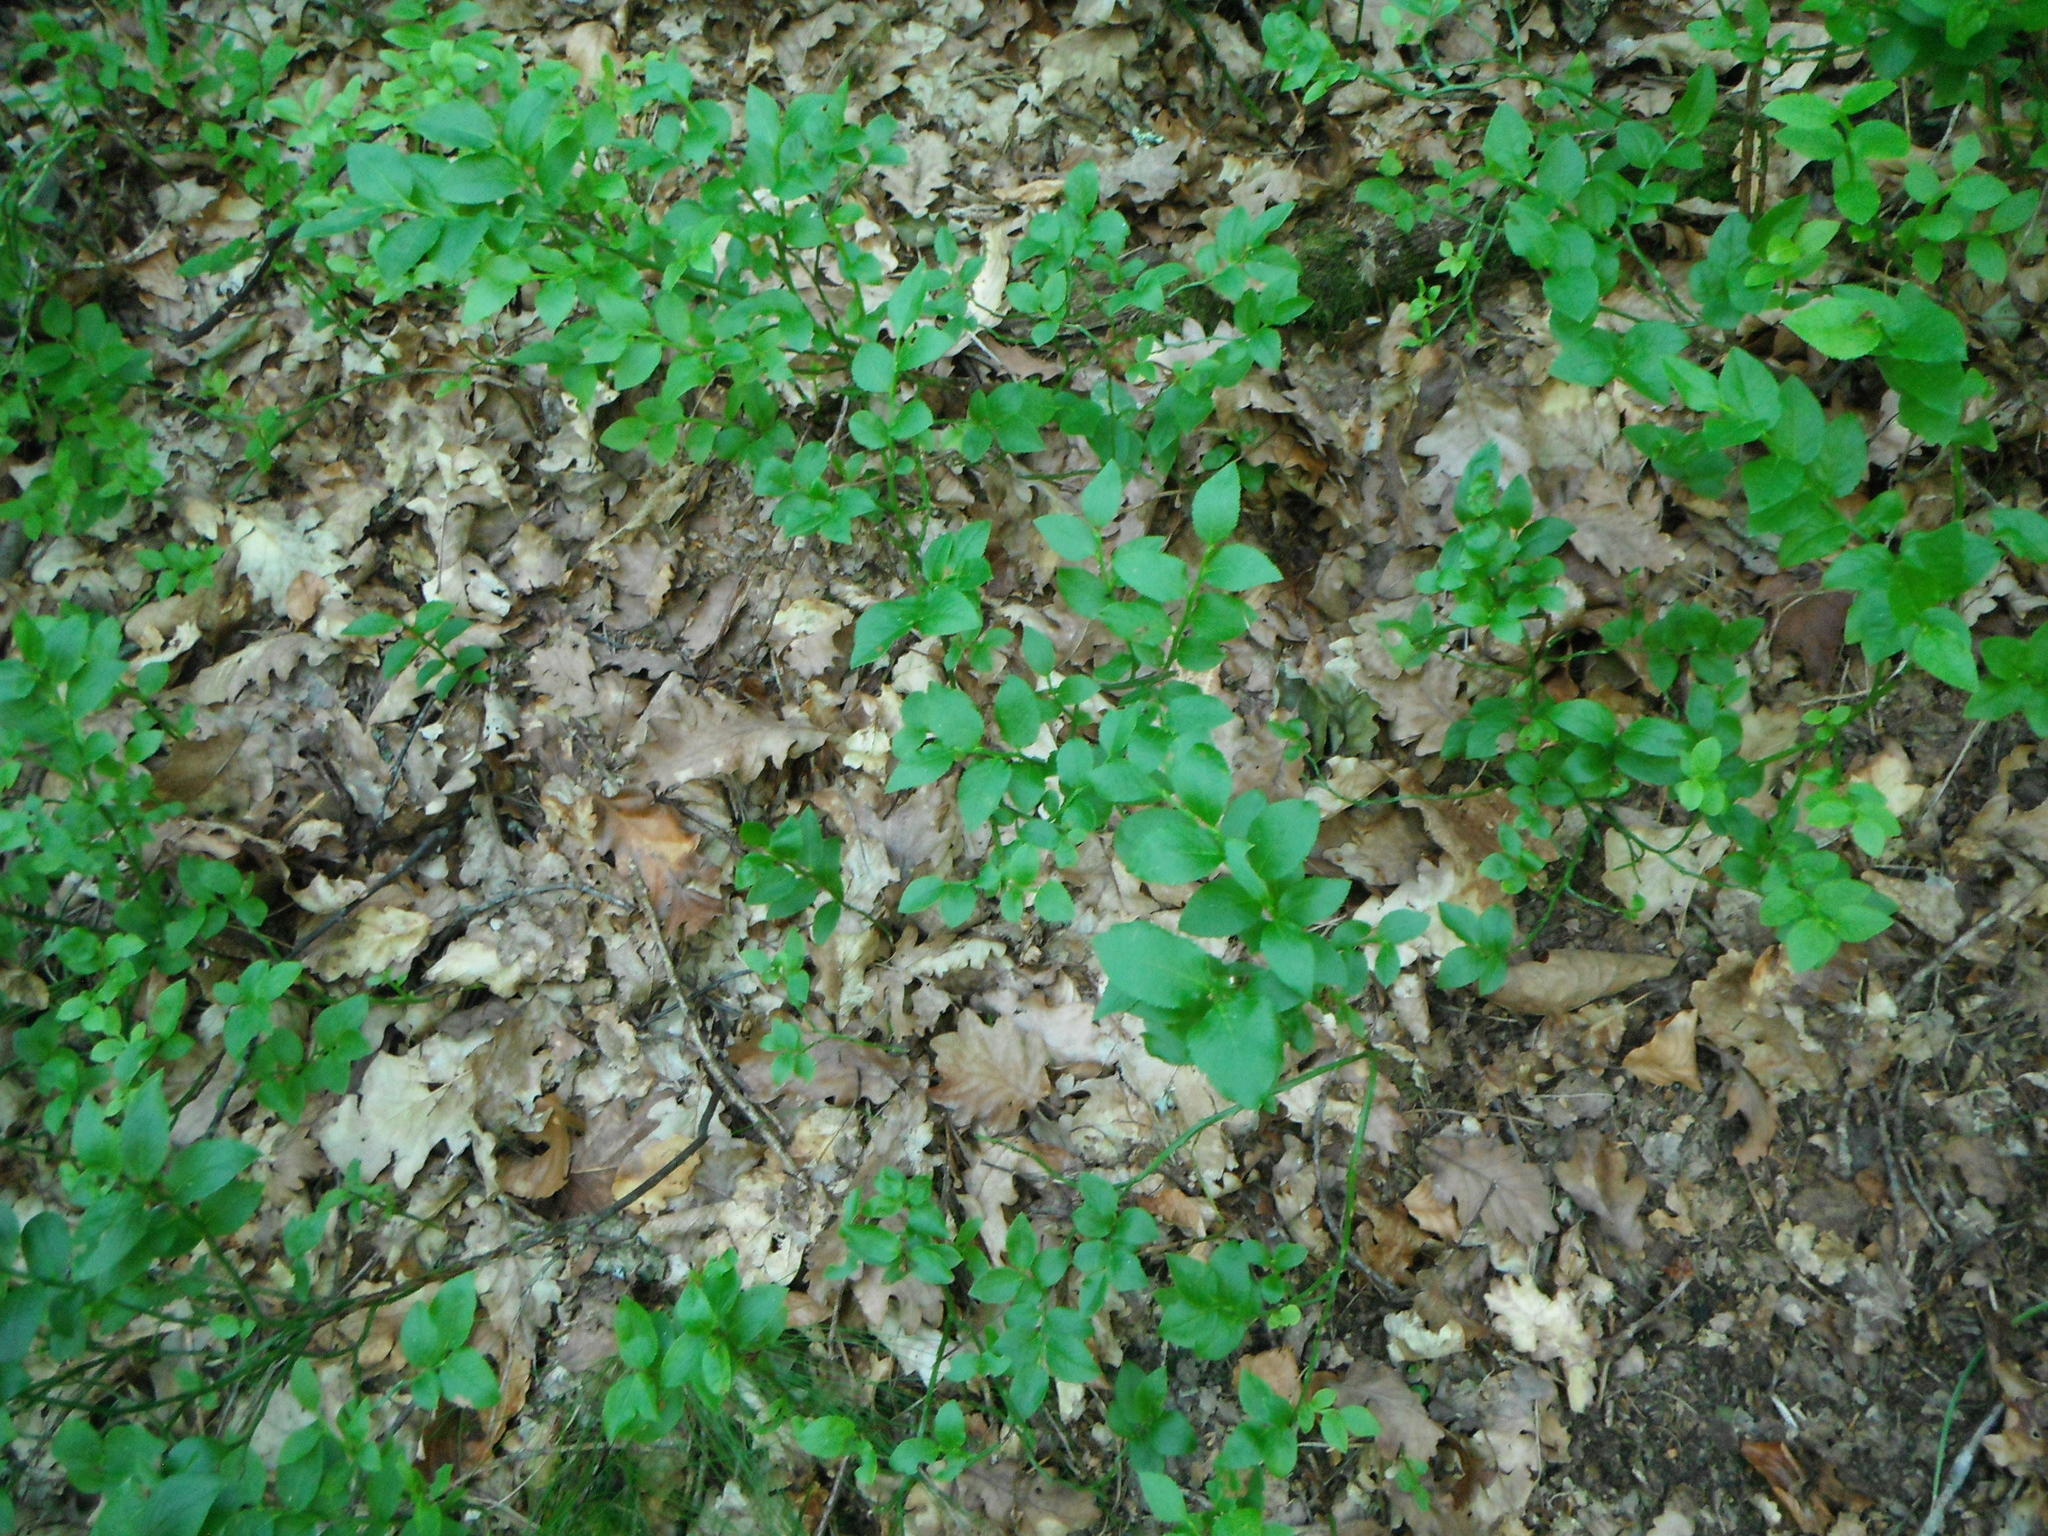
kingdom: Plantae
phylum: Tracheophyta
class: Magnoliopsida
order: Ericales
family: Ericaceae
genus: Vaccinium
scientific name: Vaccinium myrtillus
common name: Bilberry
